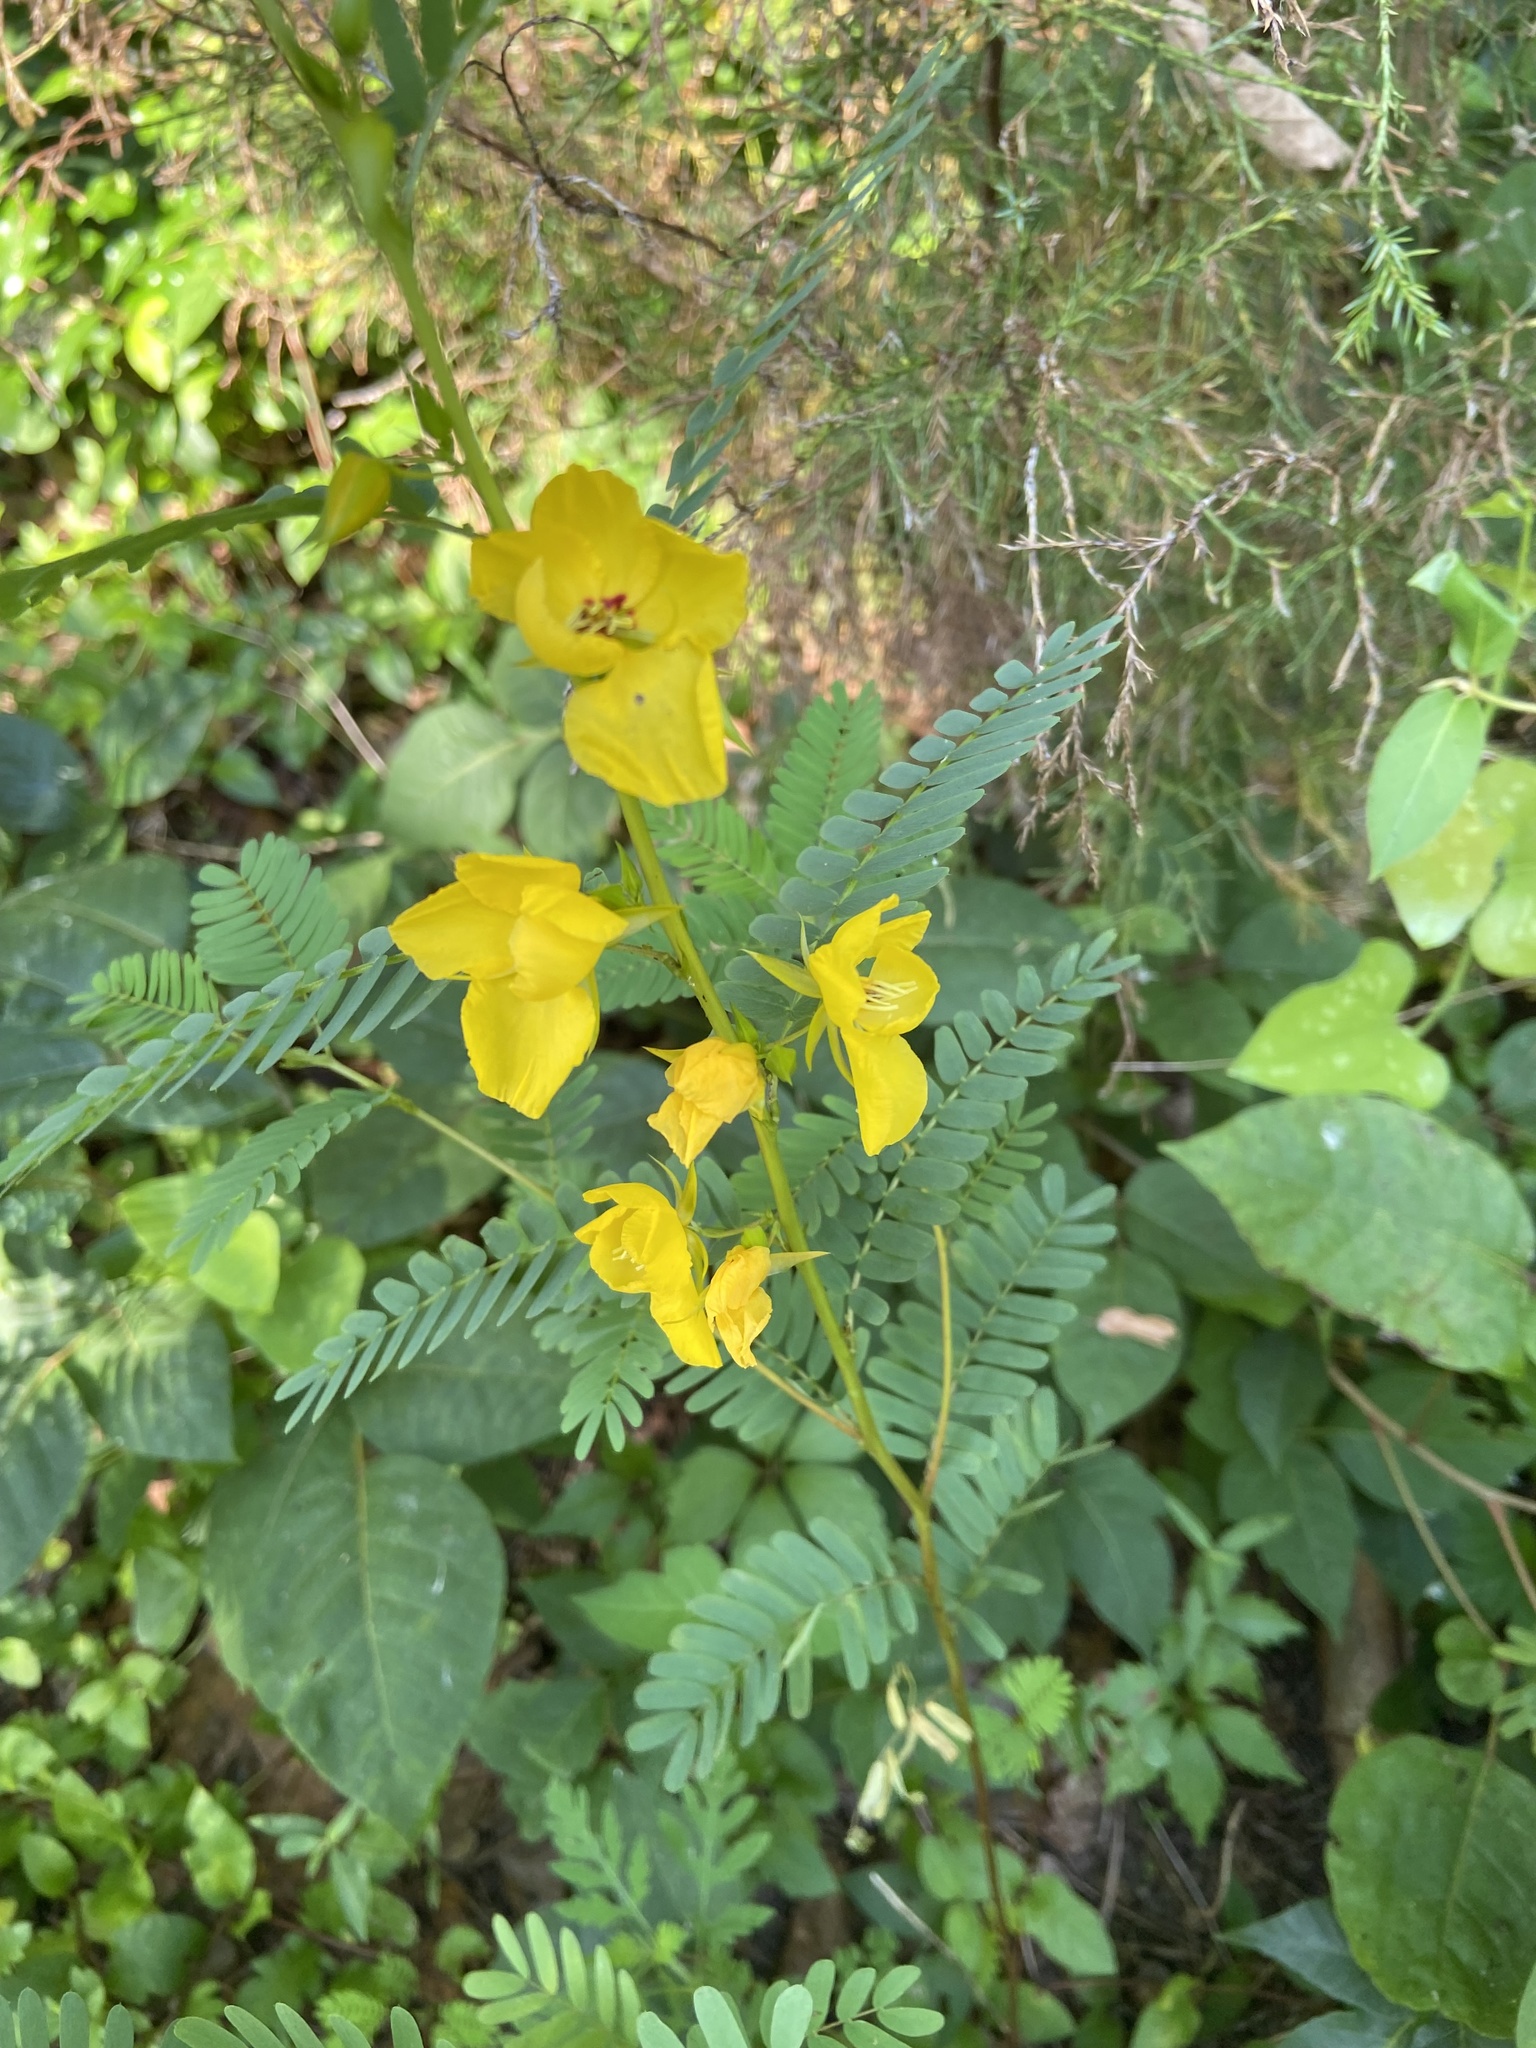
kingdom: Plantae
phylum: Tracheophyta
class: Magnoliopsida
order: Fabales
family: Fabaceae
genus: Chamaecrista
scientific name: Chamaecrista fasciculata
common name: Golden cassia
